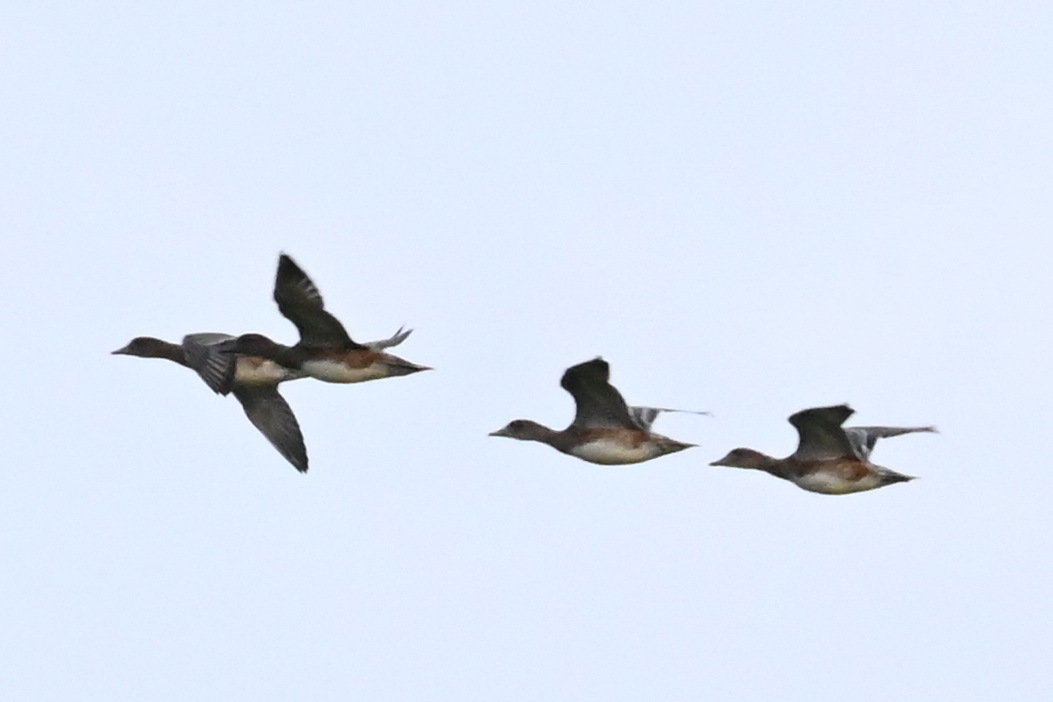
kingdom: Animalia
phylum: Chordata
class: Aves
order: Anseriformes
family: Anatidae
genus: Mareca
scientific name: Mareca penelope
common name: Eurasian wigeon
